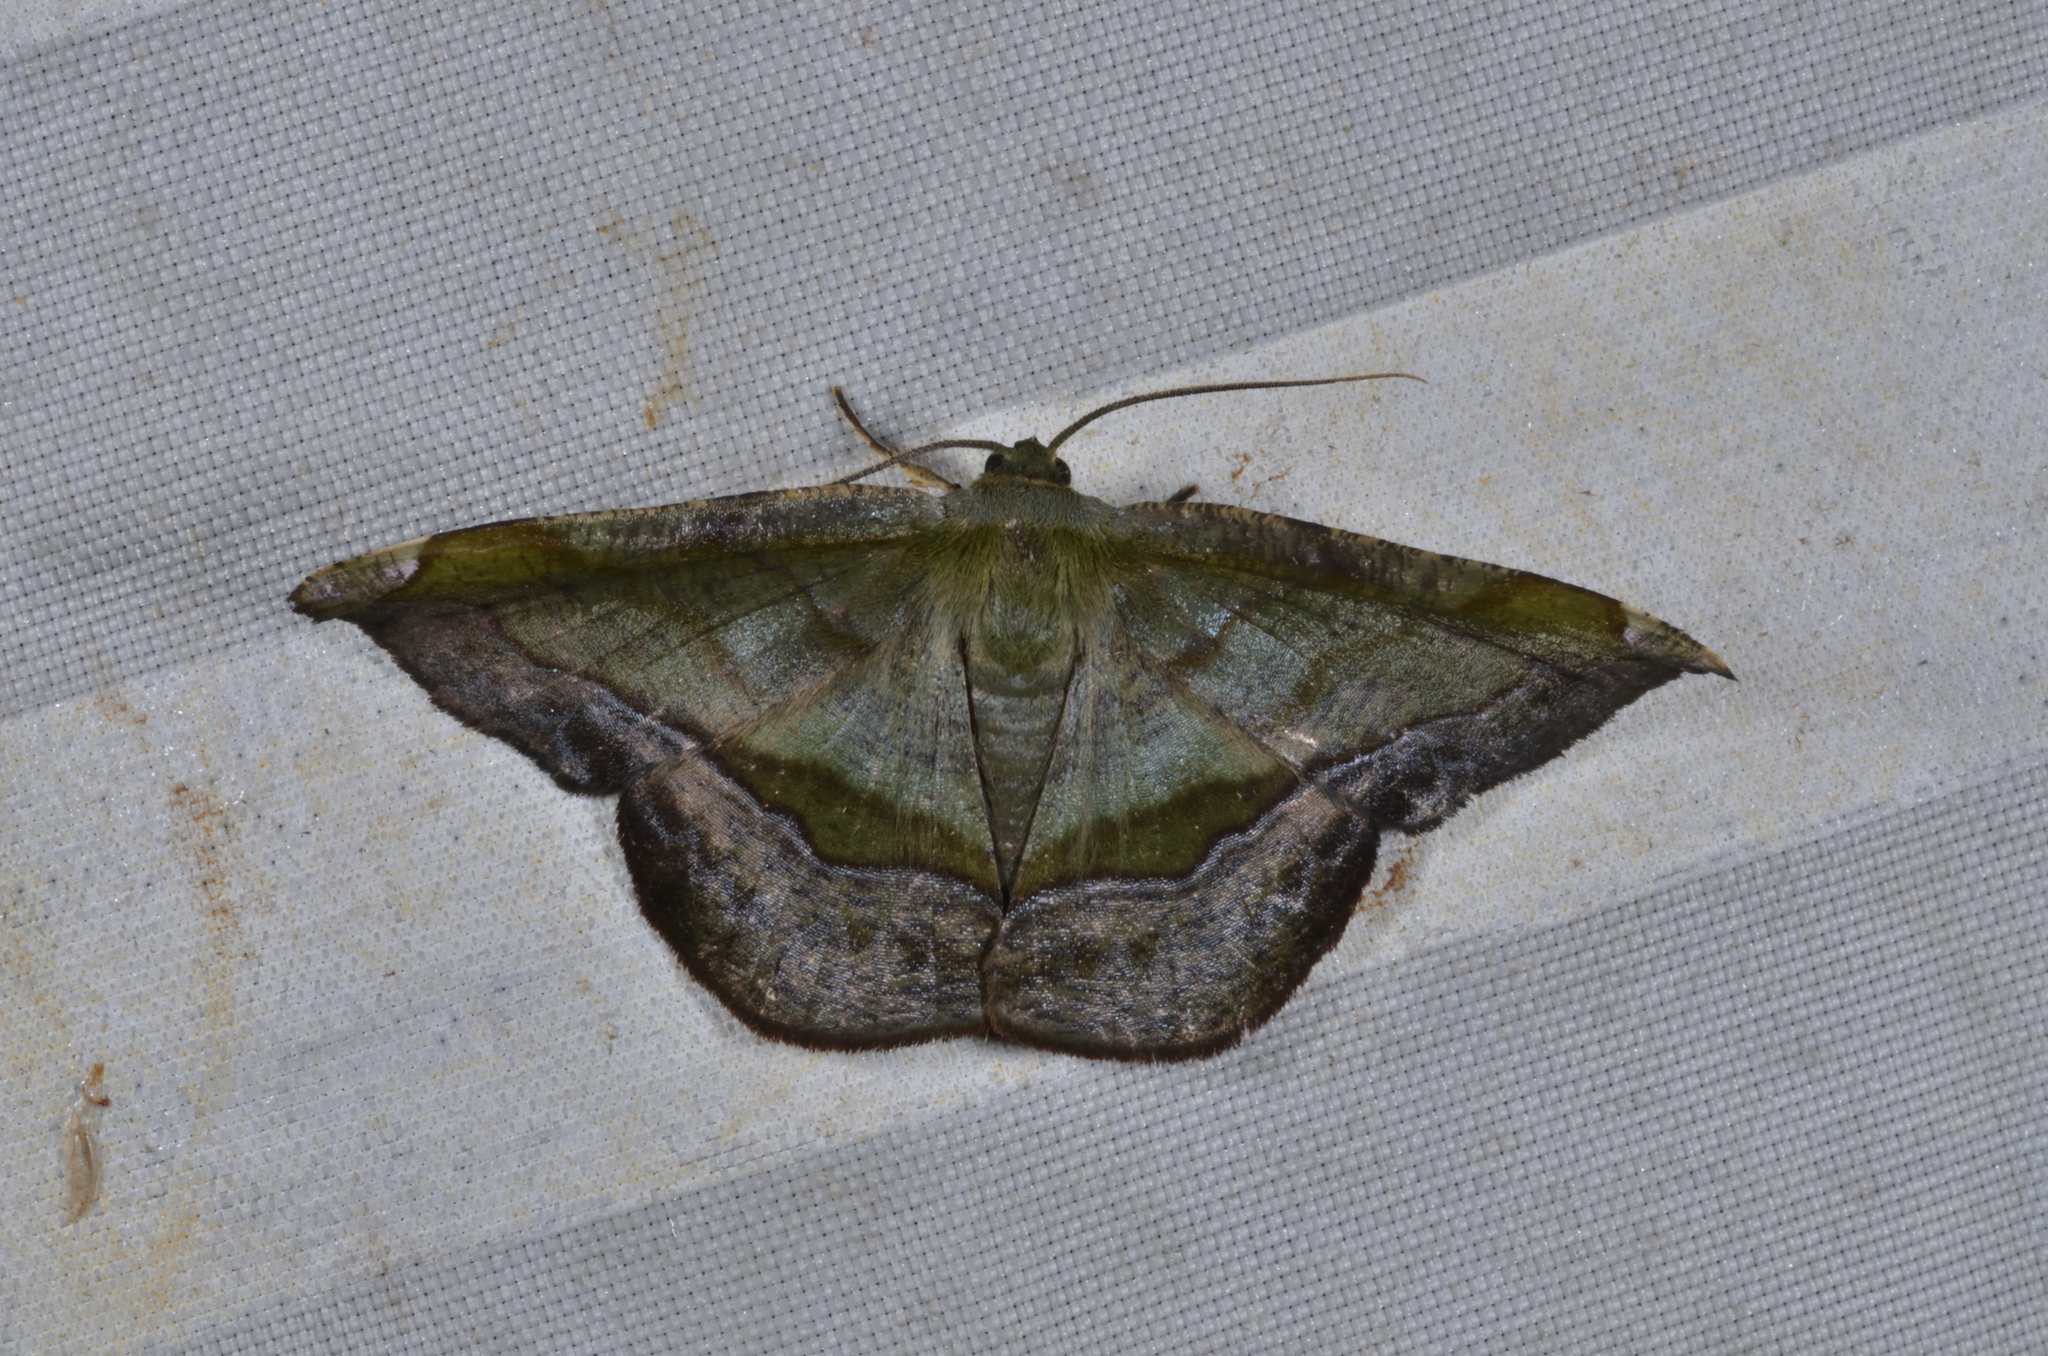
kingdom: Animalia
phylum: Arthropoda
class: Insecta
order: Lepidoptera
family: Geometridae
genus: Fascellina
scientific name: Fascellina rectimarginata
